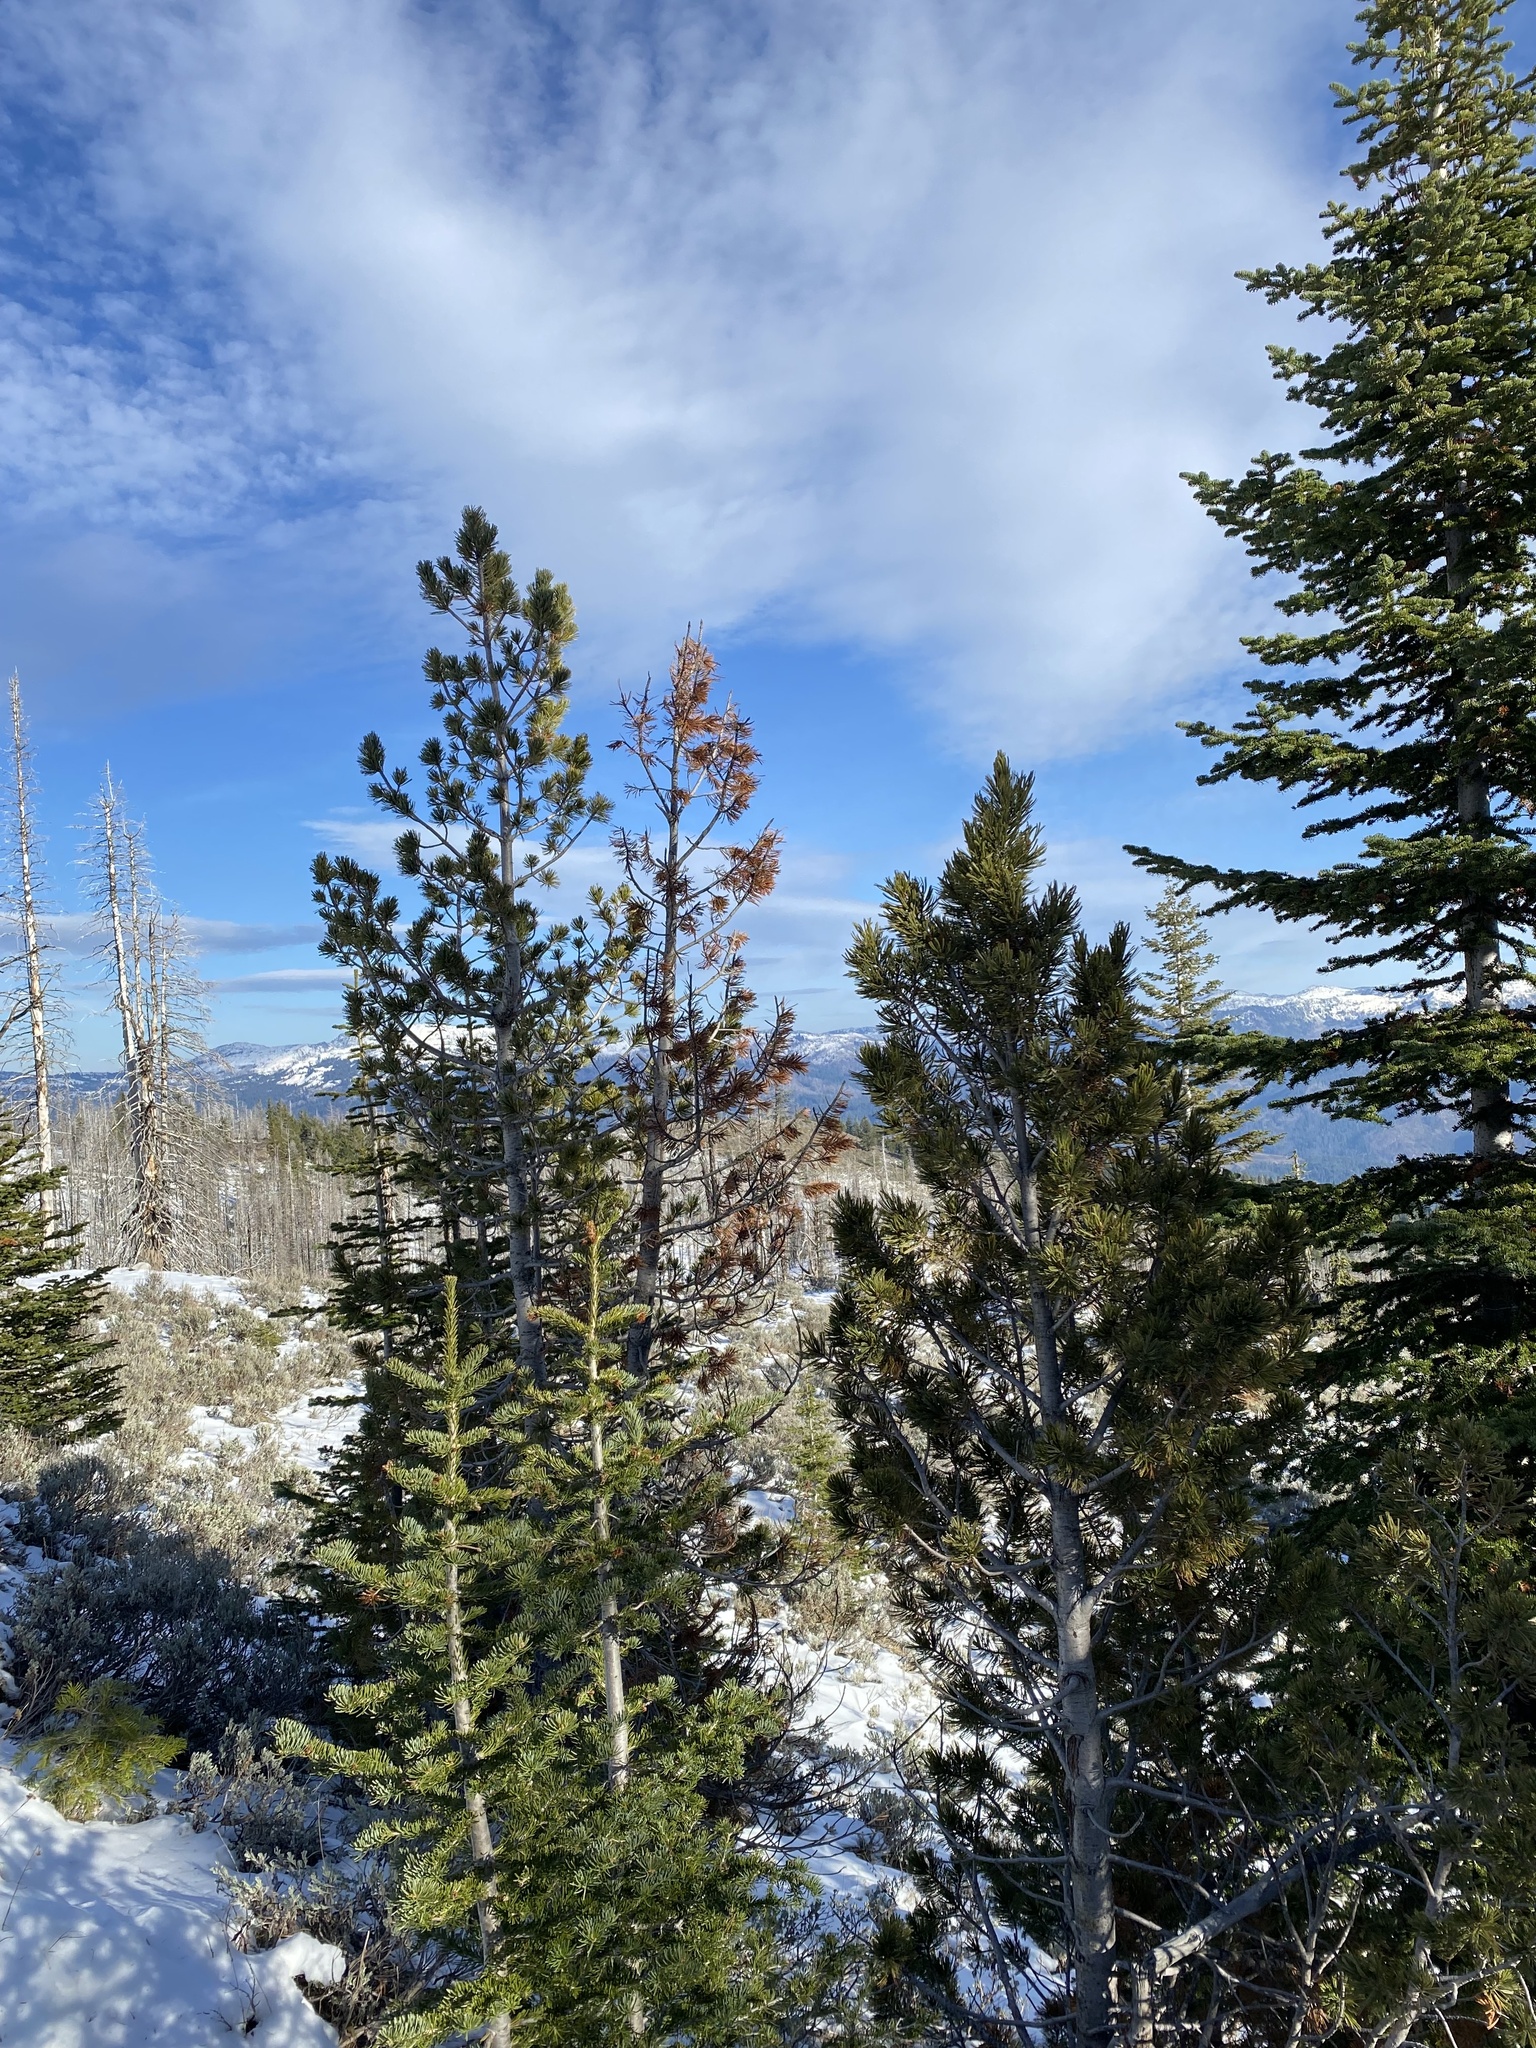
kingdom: Plantae
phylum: Tracheophyta
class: Pinopsida
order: Pinales
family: Pinaceae
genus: Pinus
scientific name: Pinus albicaulis
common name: Whitebark pine
